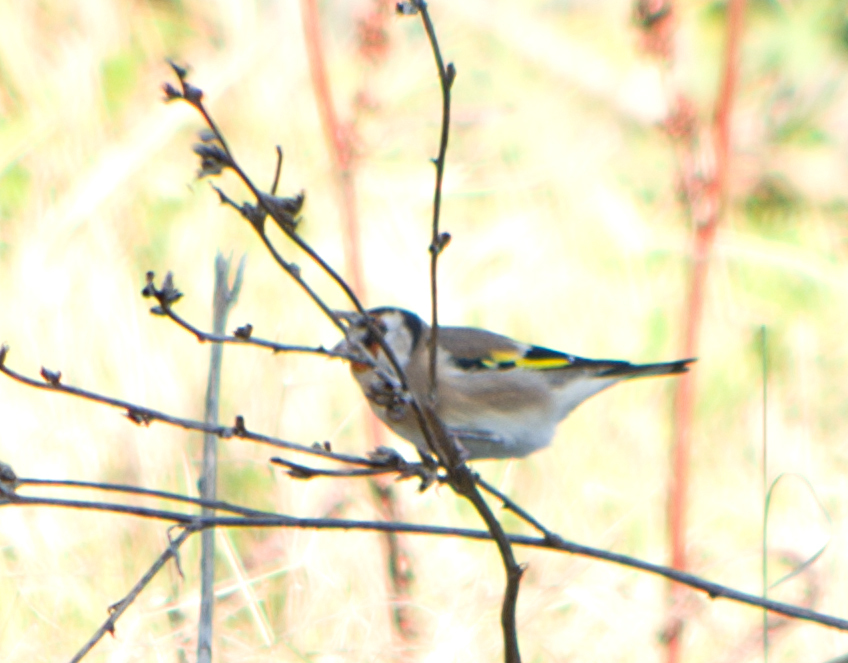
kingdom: Animalia
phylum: Chordata
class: Aves
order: Passeriformes
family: Fringillidae
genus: Carduelis
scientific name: Carduelis carduelis
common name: European goldfinch
